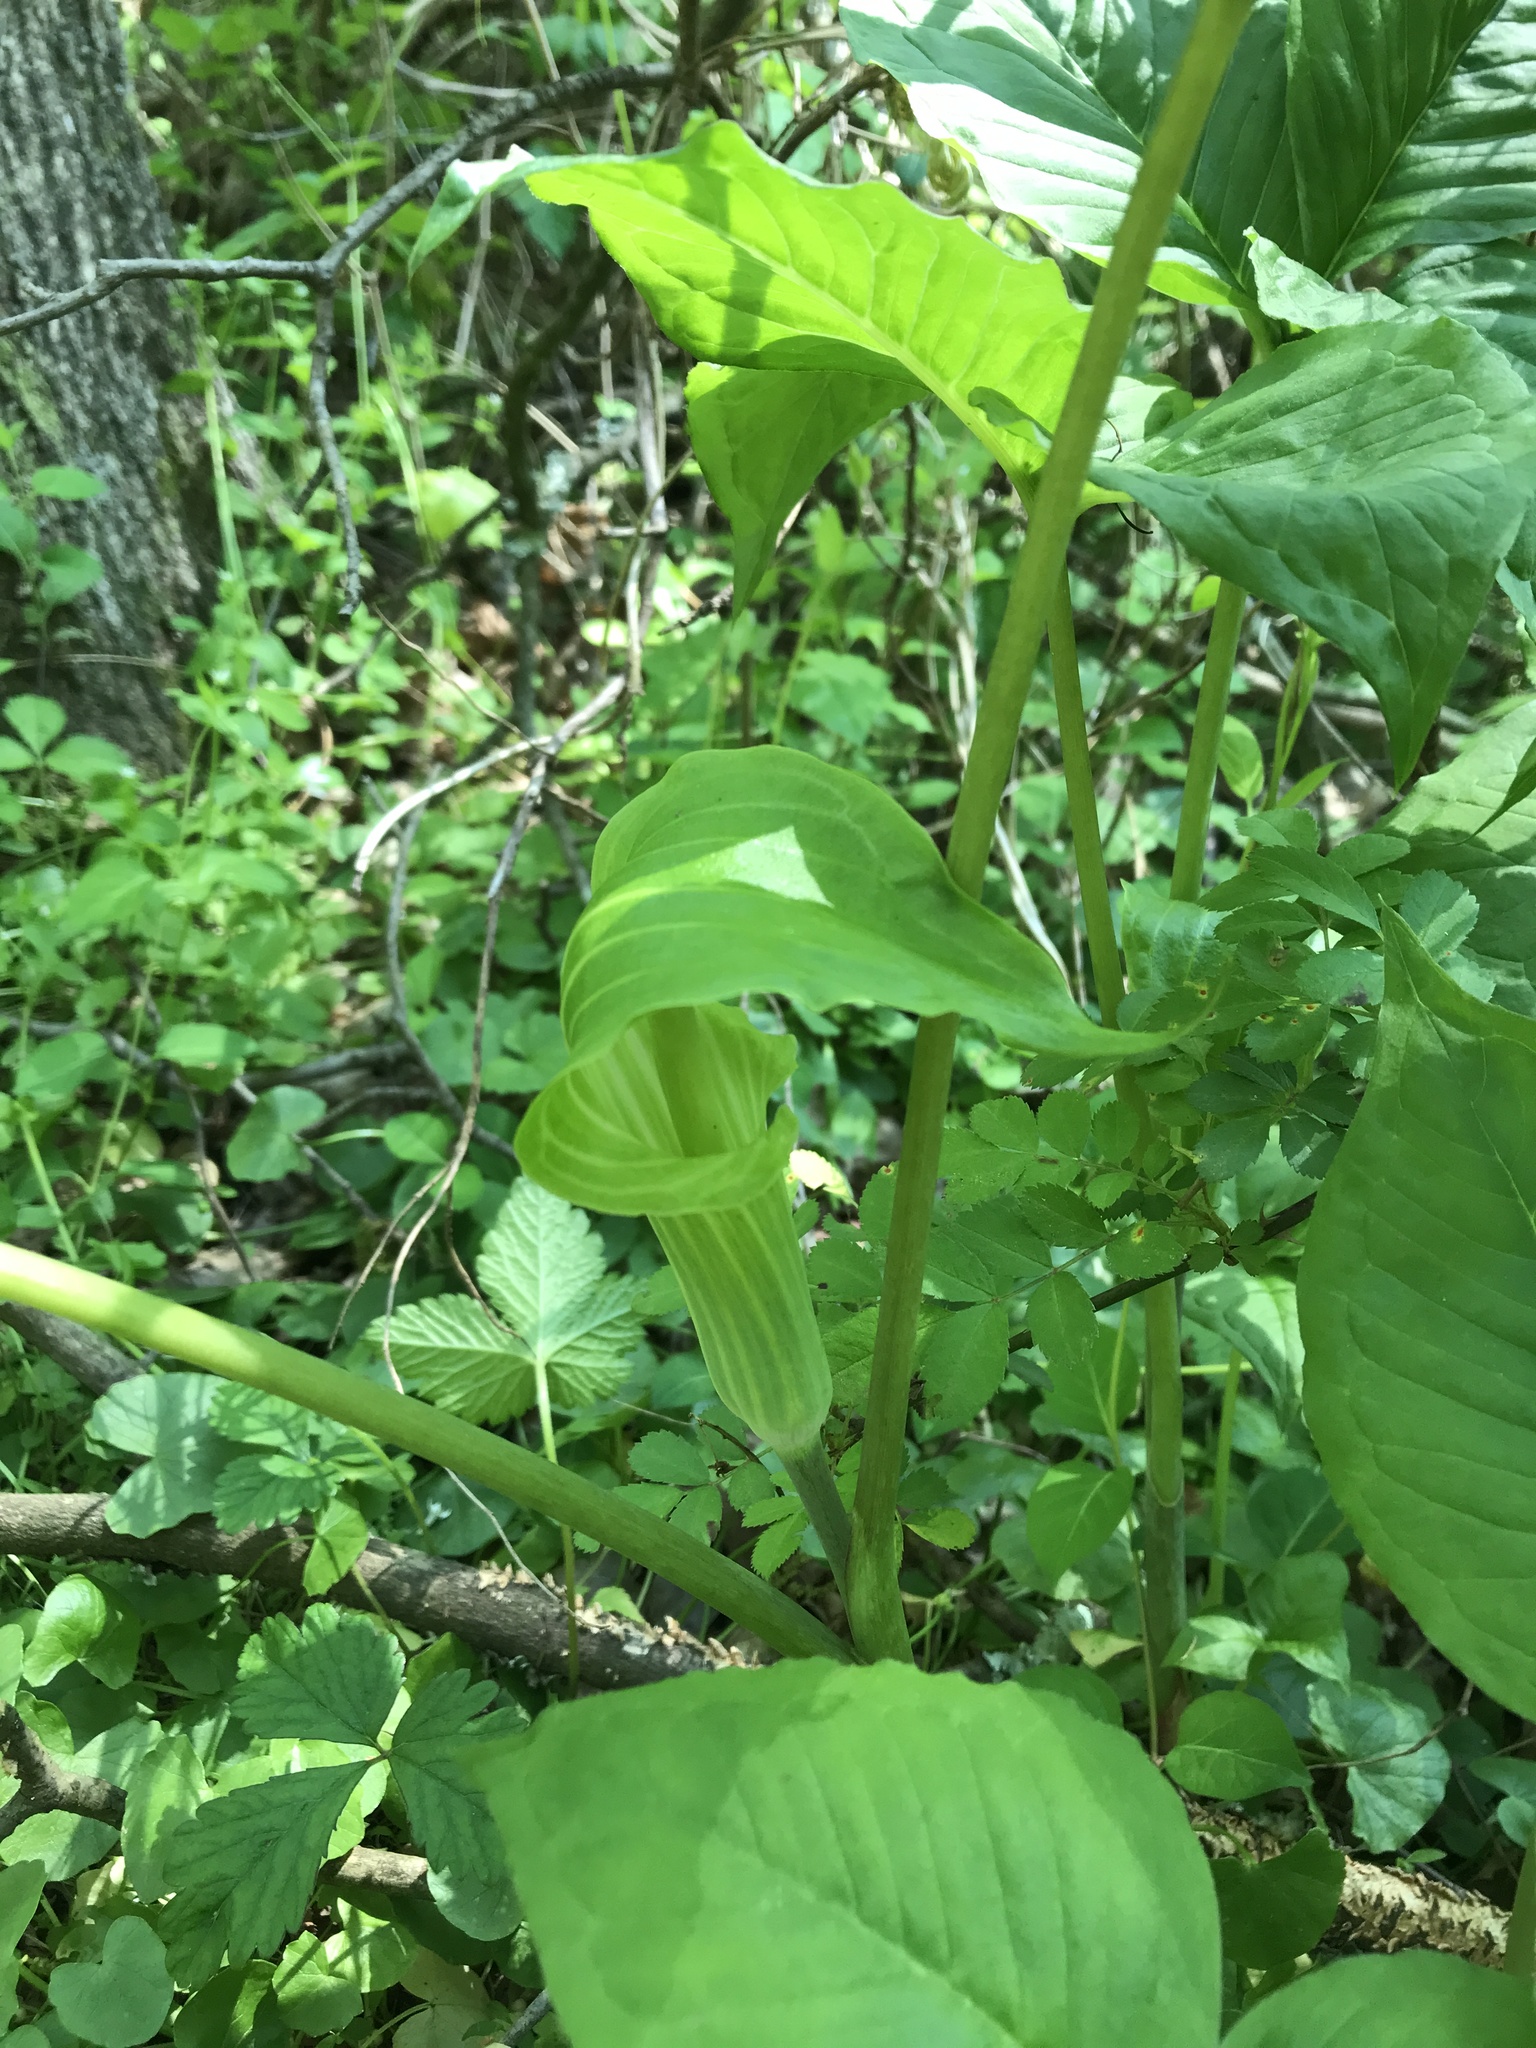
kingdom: Plantae
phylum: Tracheophyta
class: Liliopsida
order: Alismatales
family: Araceae
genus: Arisaema
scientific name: Arisaema triphyllum
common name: Jack-in-the-pulpit
